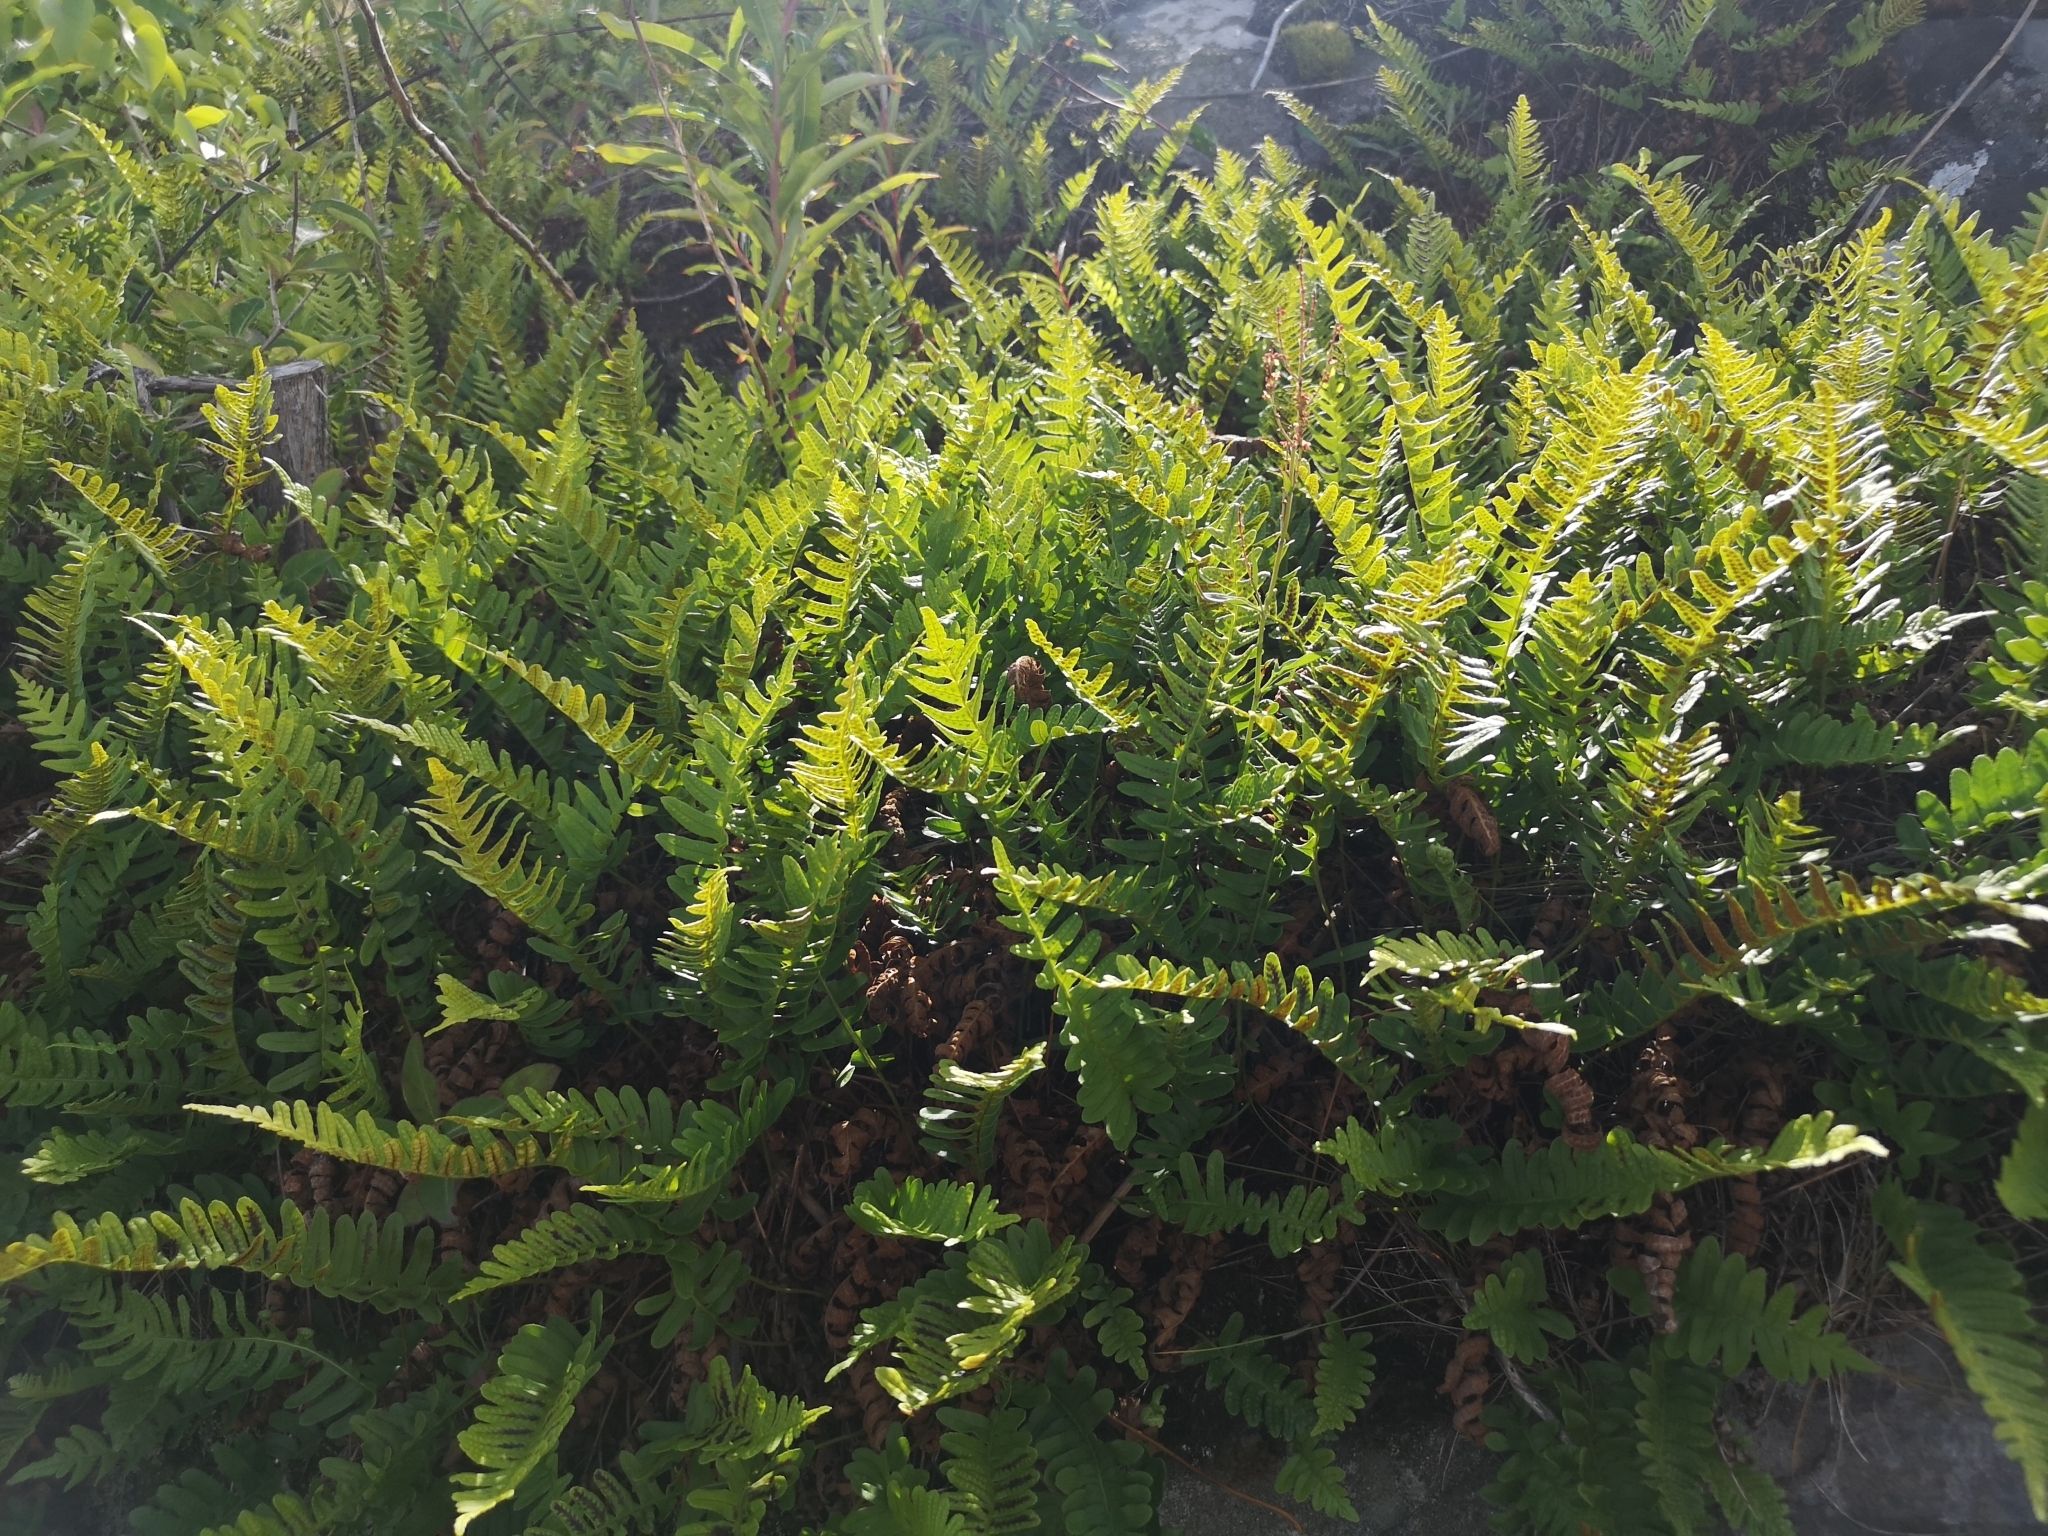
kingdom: Plantae
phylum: Tracheophyta
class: Polypodiopsida
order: Polypodiales
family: Polypodiaceae
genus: Polypodium
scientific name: Polypodium vulgare
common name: Common polypody
